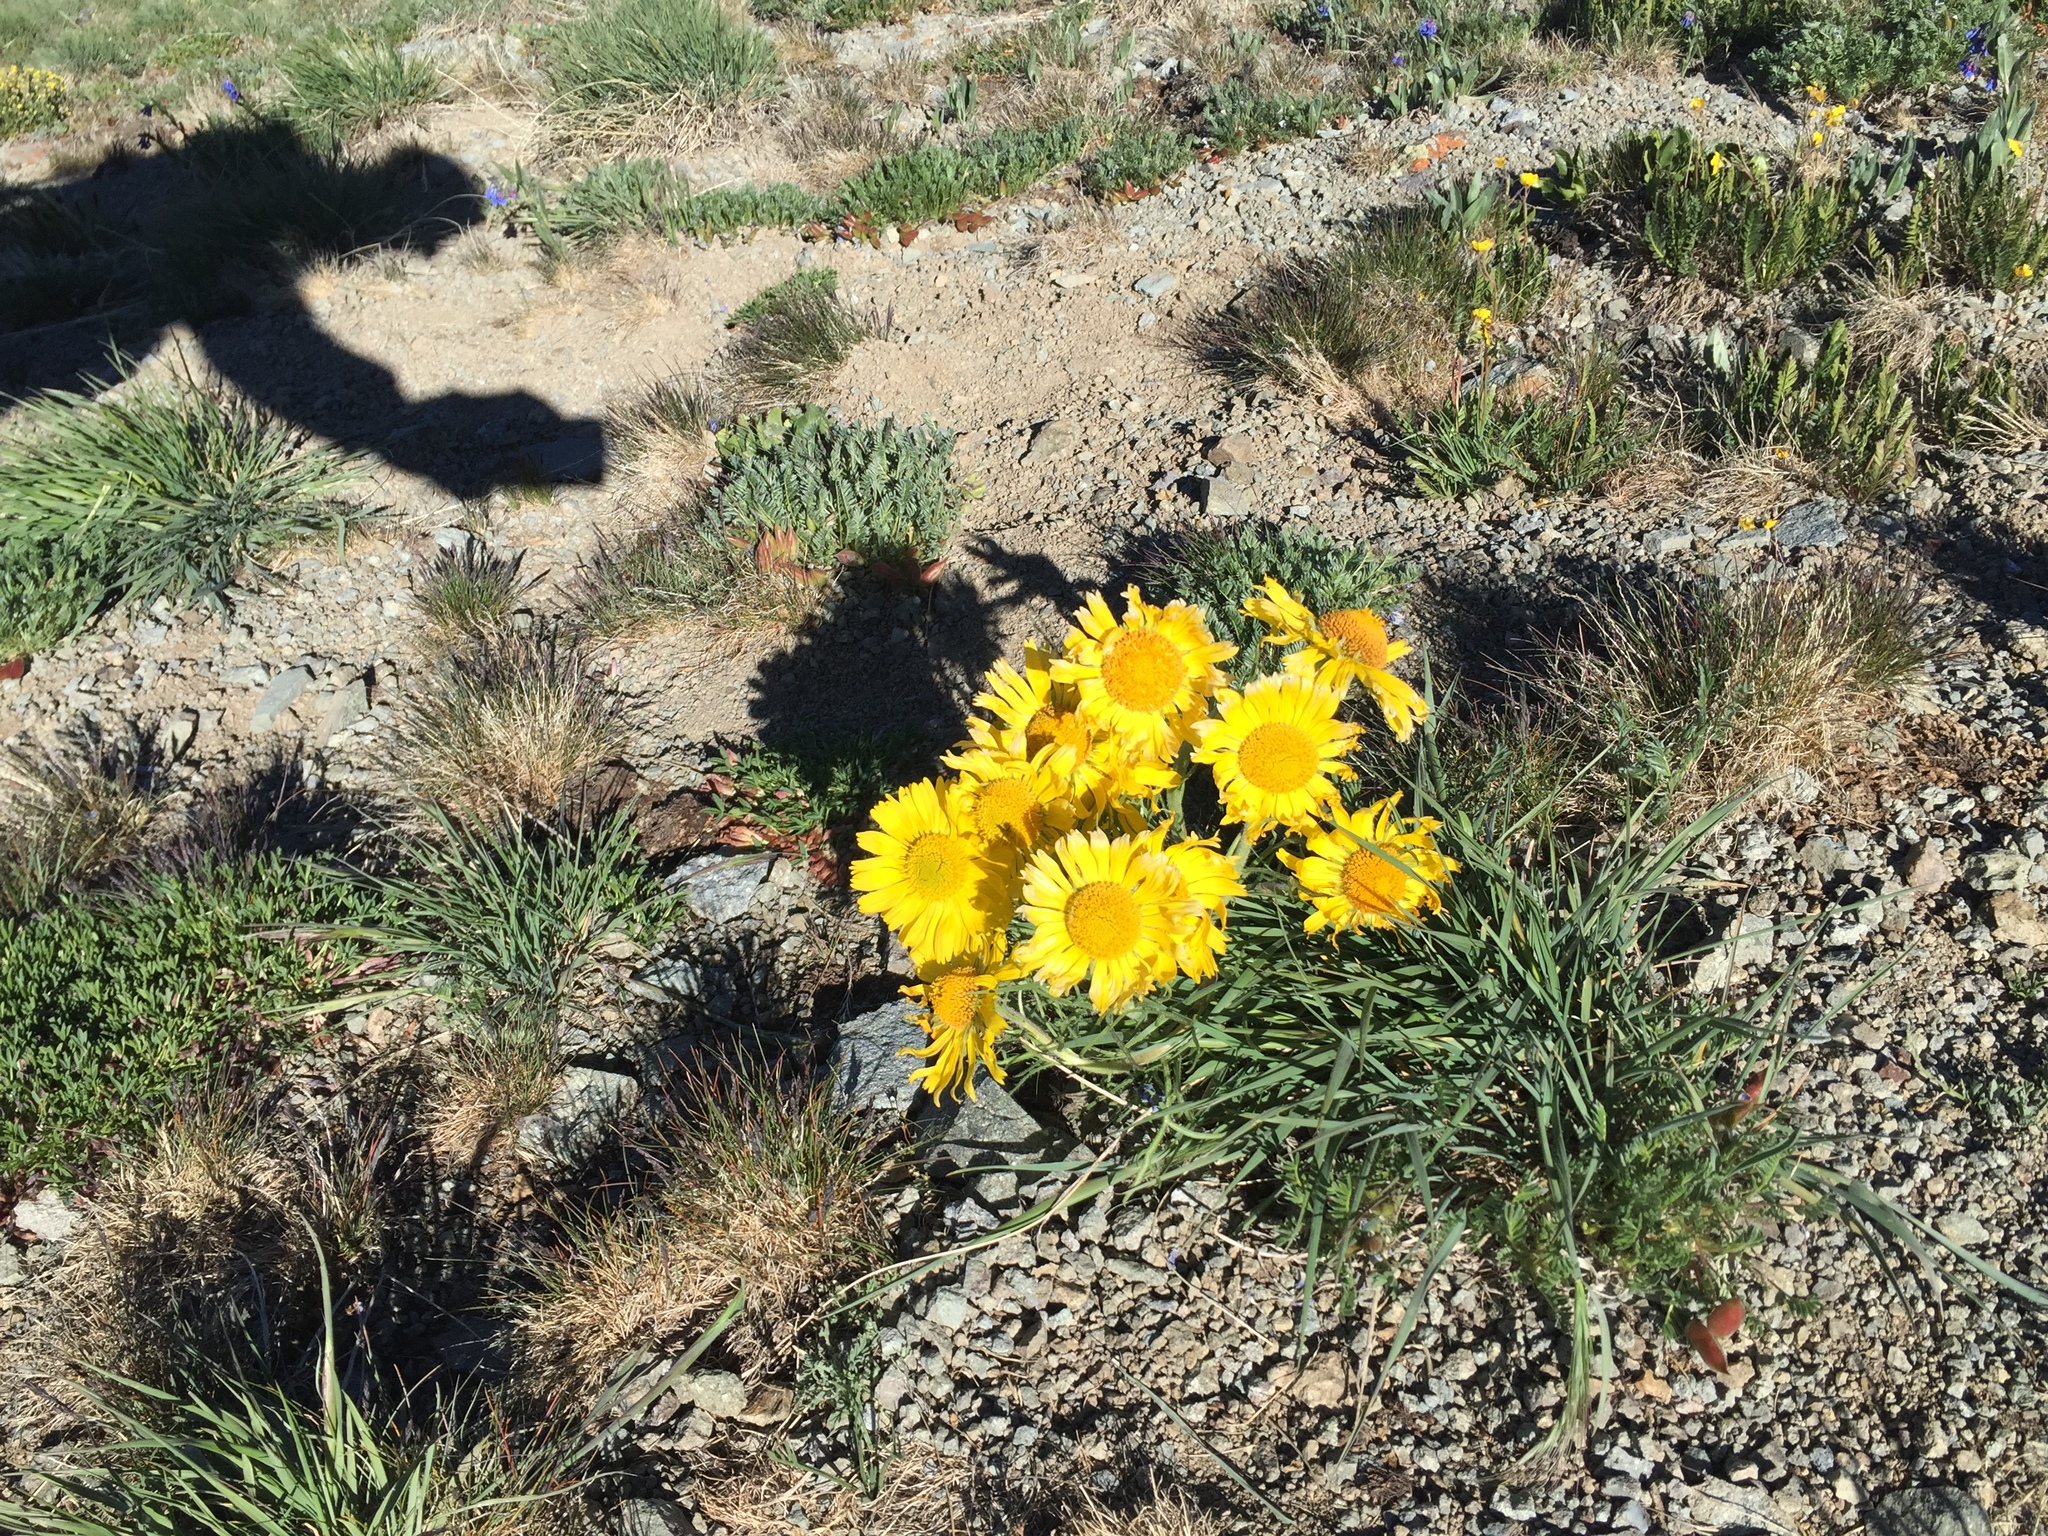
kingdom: Plantae
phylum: Tracheophyta
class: Magnoliopsida
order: Asterales
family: Asteraceae
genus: Hymenoxys
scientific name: Hymenoxys grandiflora
